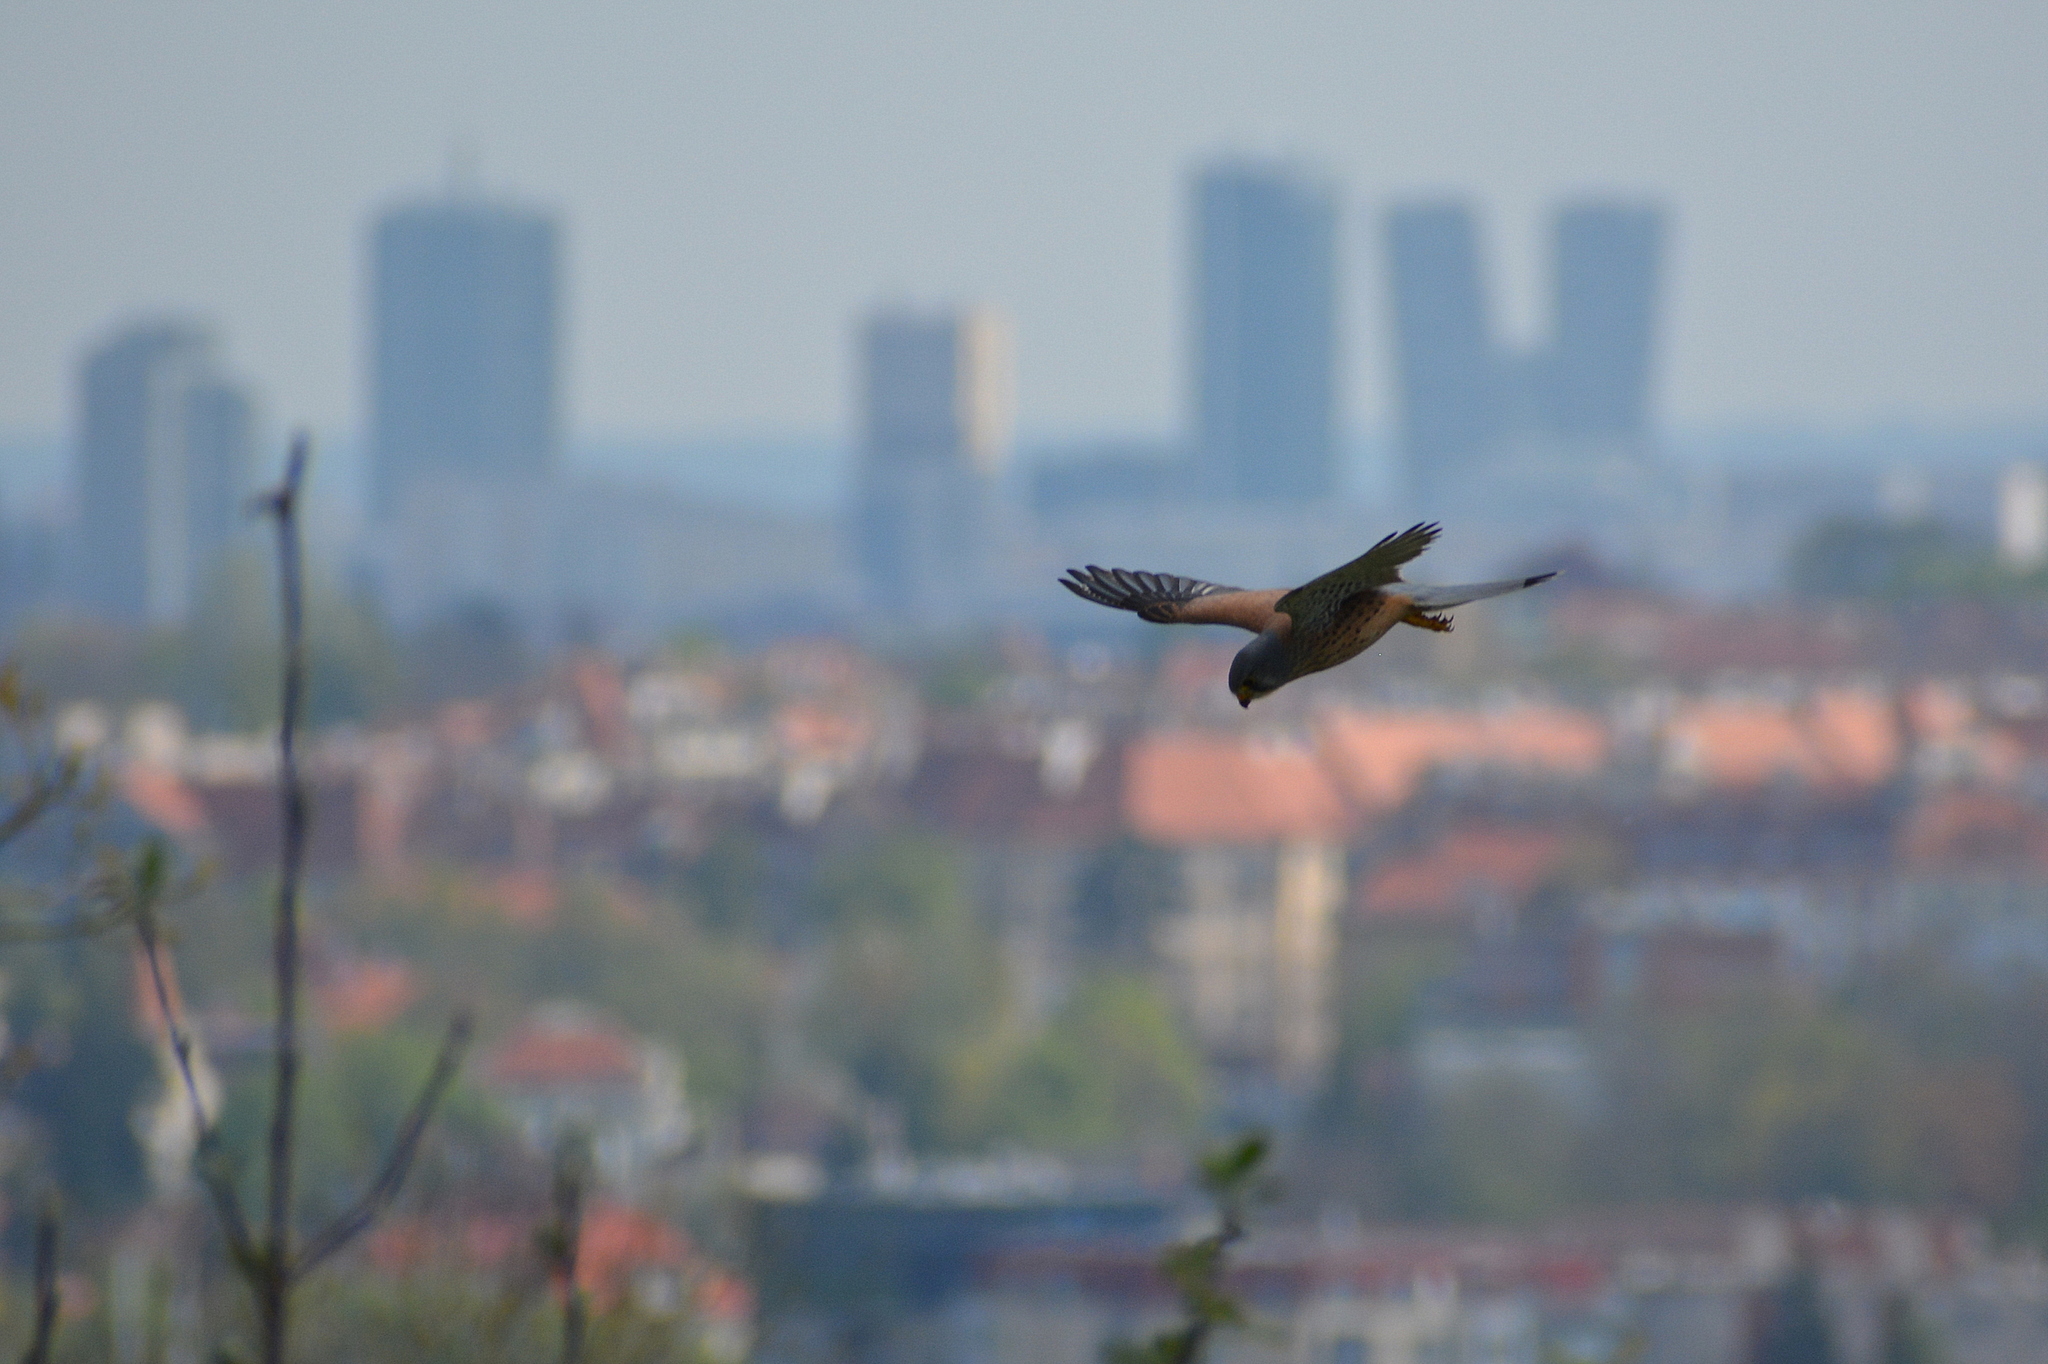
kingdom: Animalia
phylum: Chordata
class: Aves
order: Falconiformes
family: Falconidae
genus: Falco
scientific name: Falco tinnunculus
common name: Common kestrel
